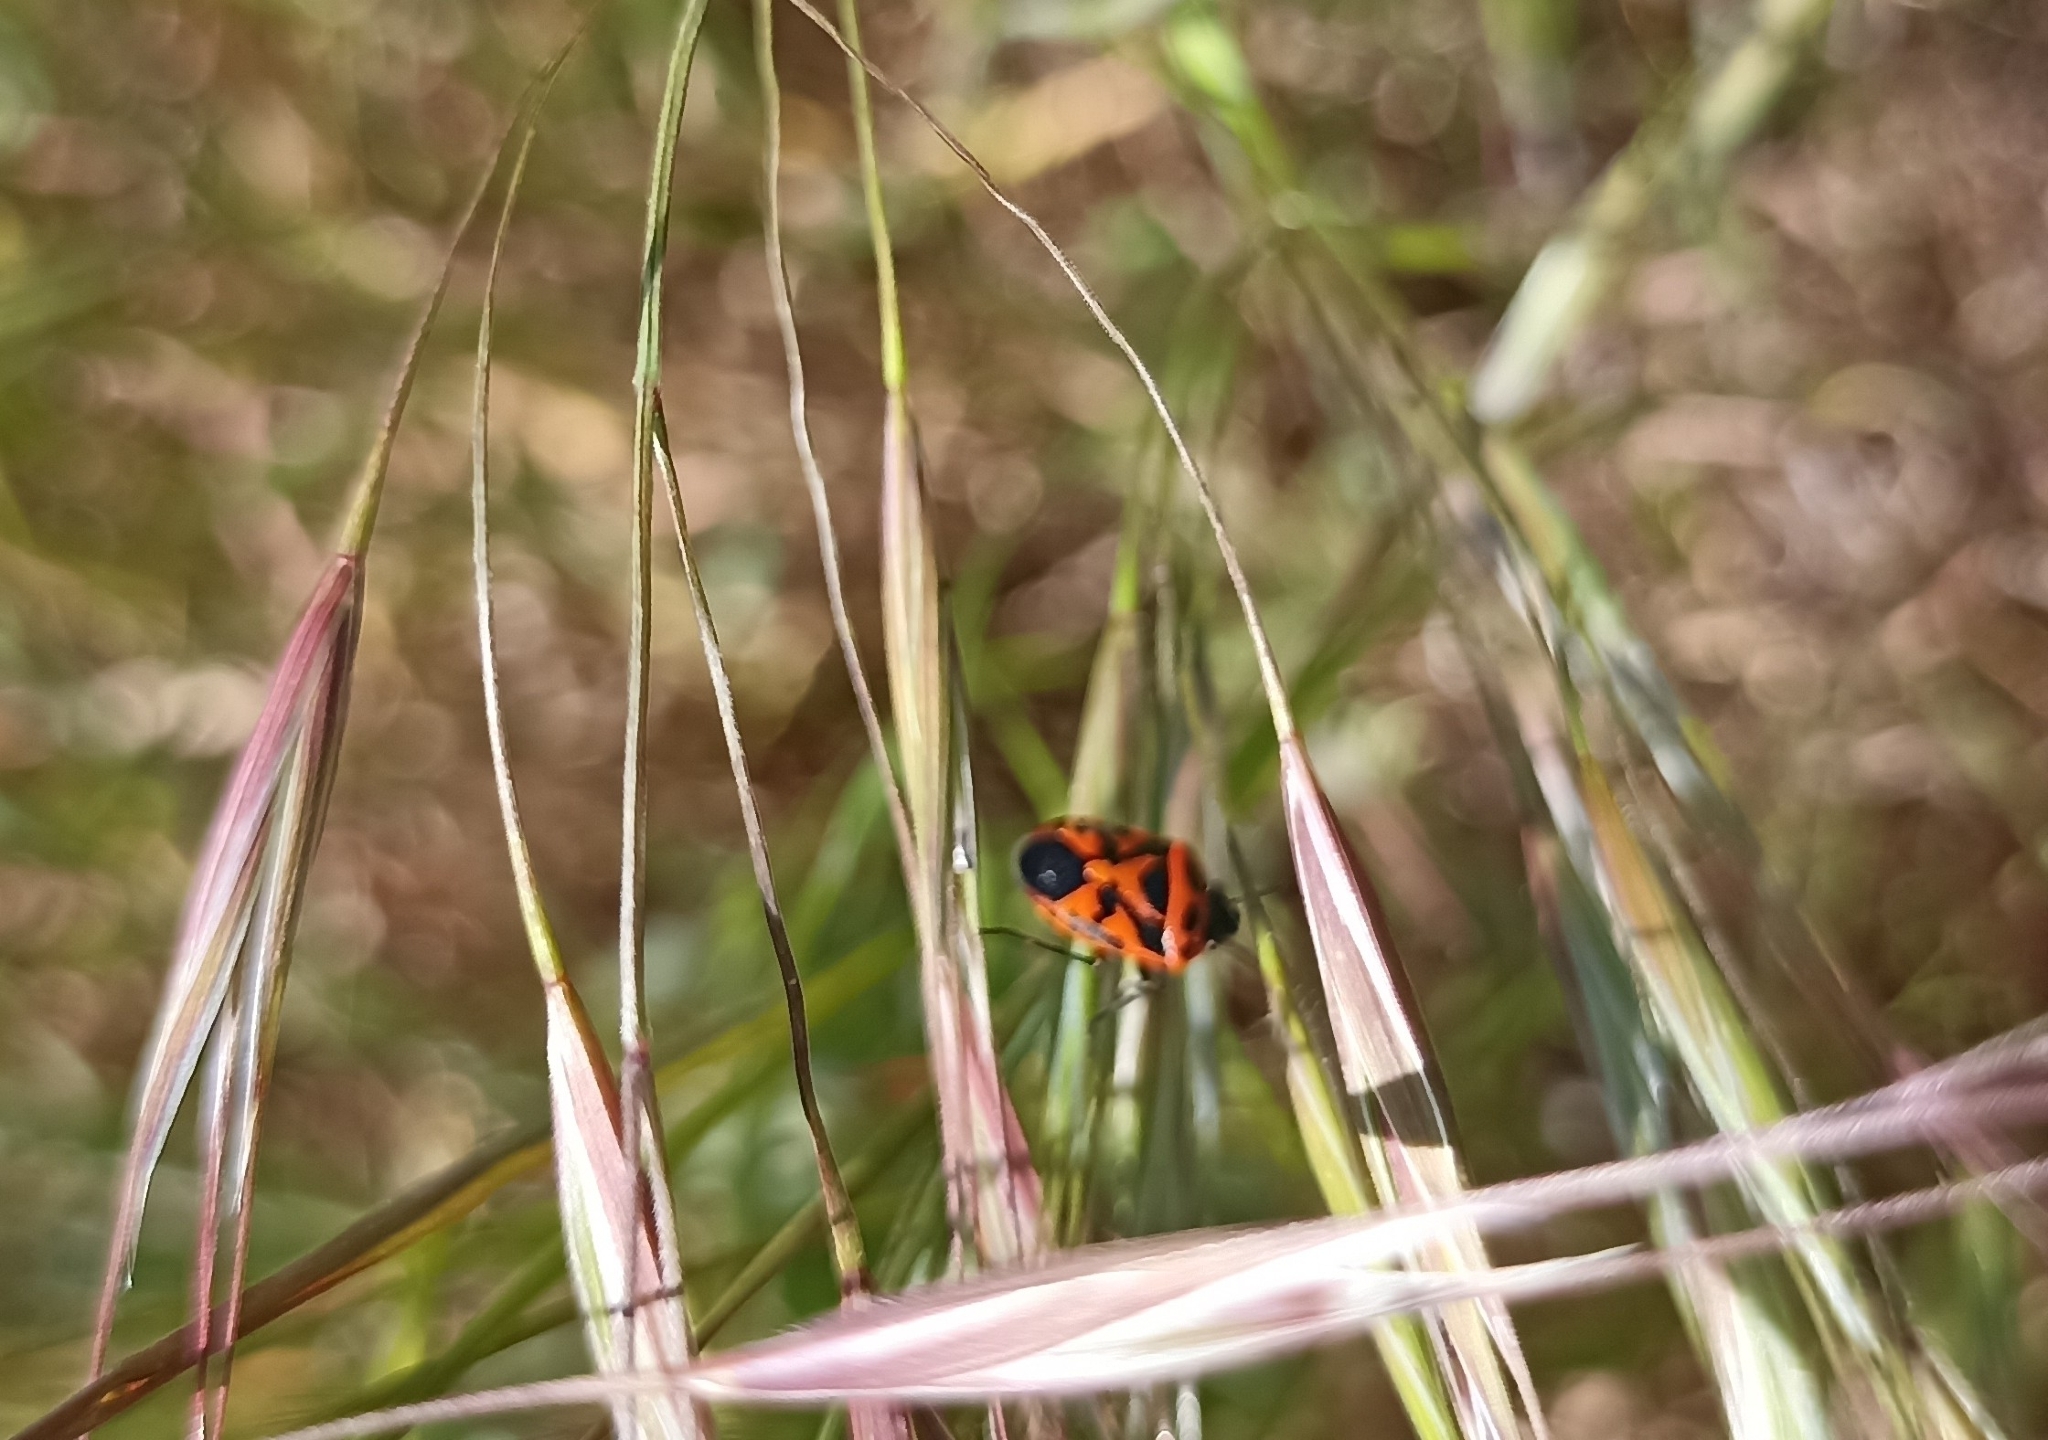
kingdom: Animalia
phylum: Arthropoda
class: Insecta
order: Hemiptera
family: Pentatomidae
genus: Eurydema
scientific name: Eurydema ornata
